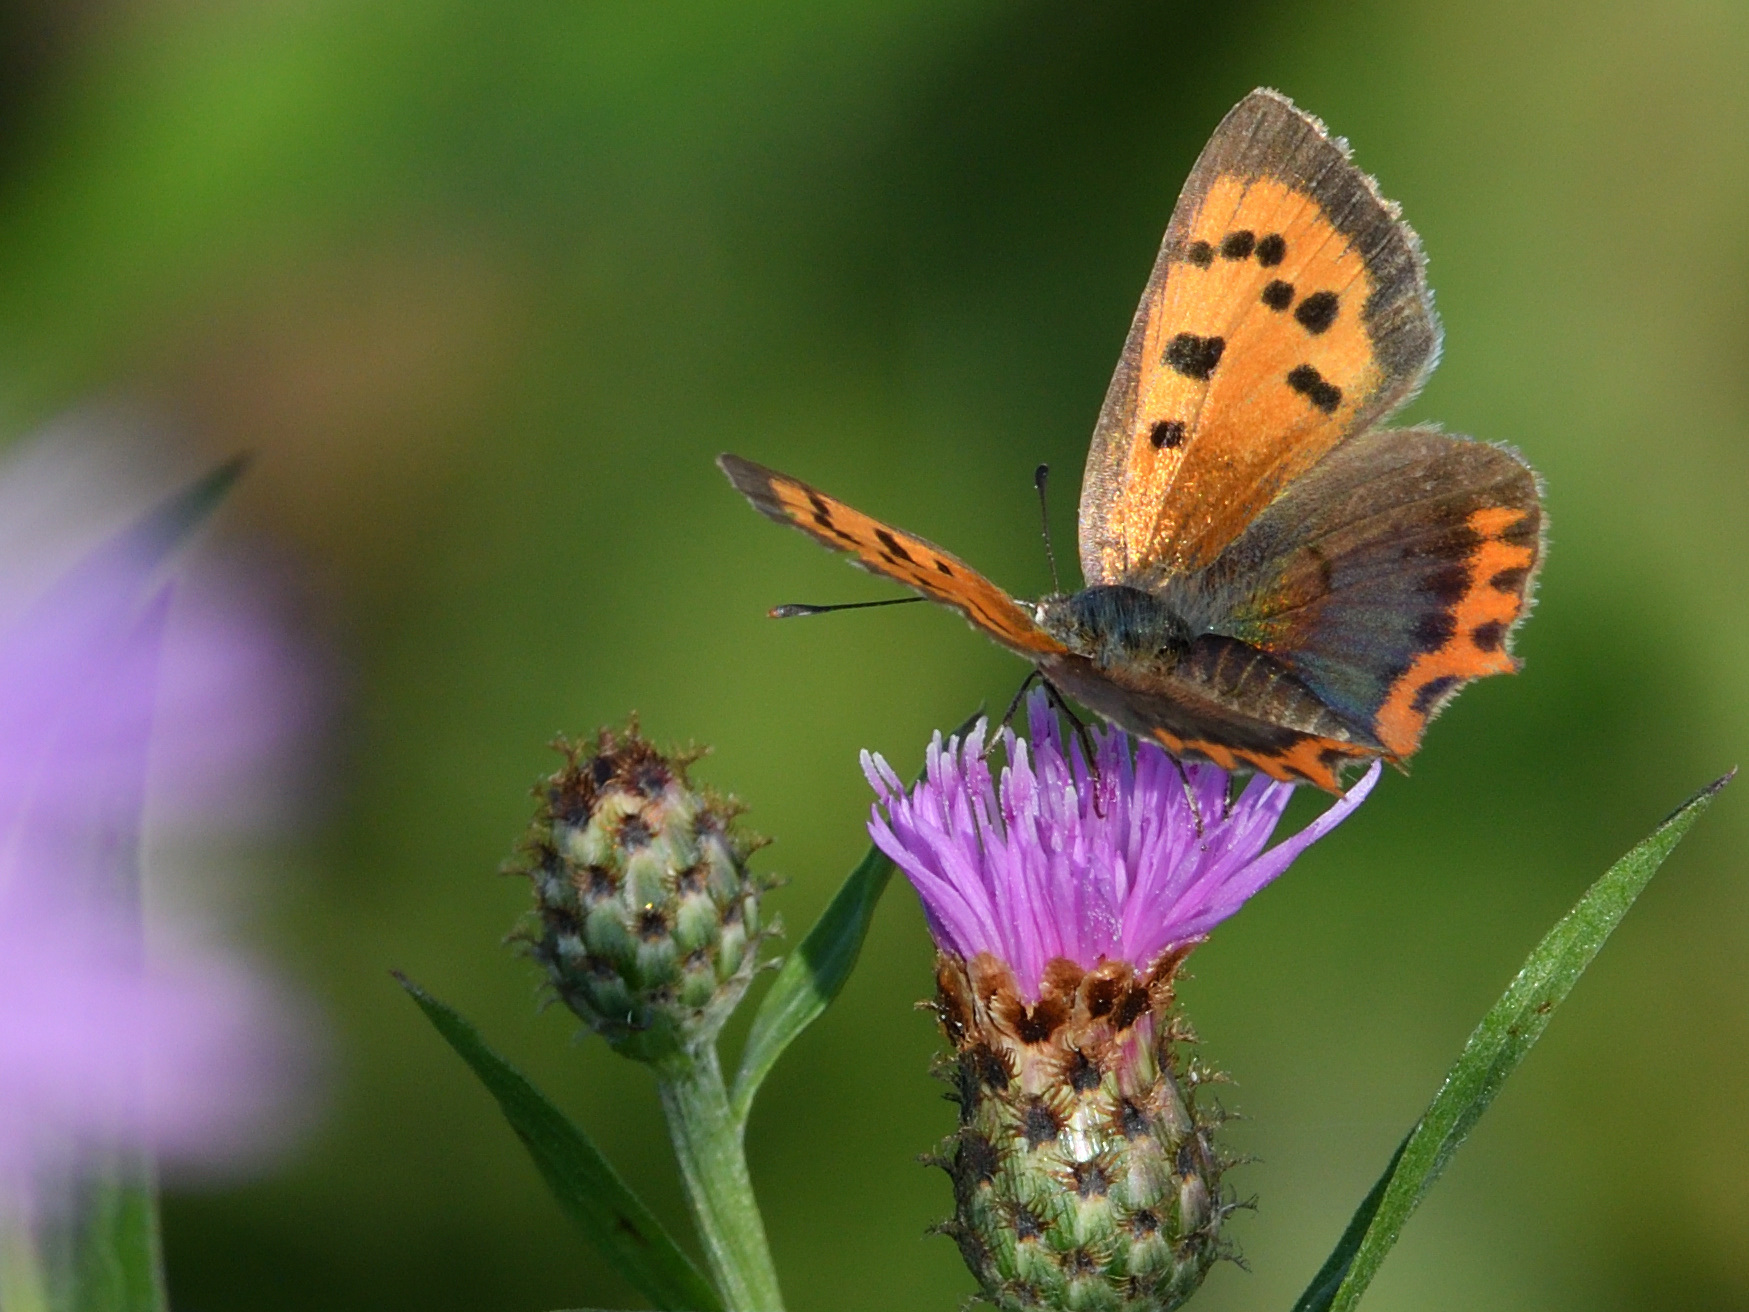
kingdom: Animalia
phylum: Arthropoda
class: Insecta
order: Lepidoptera
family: Lycaenidae
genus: Lycaena
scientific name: Lycaena phlaeas
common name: Small copper
